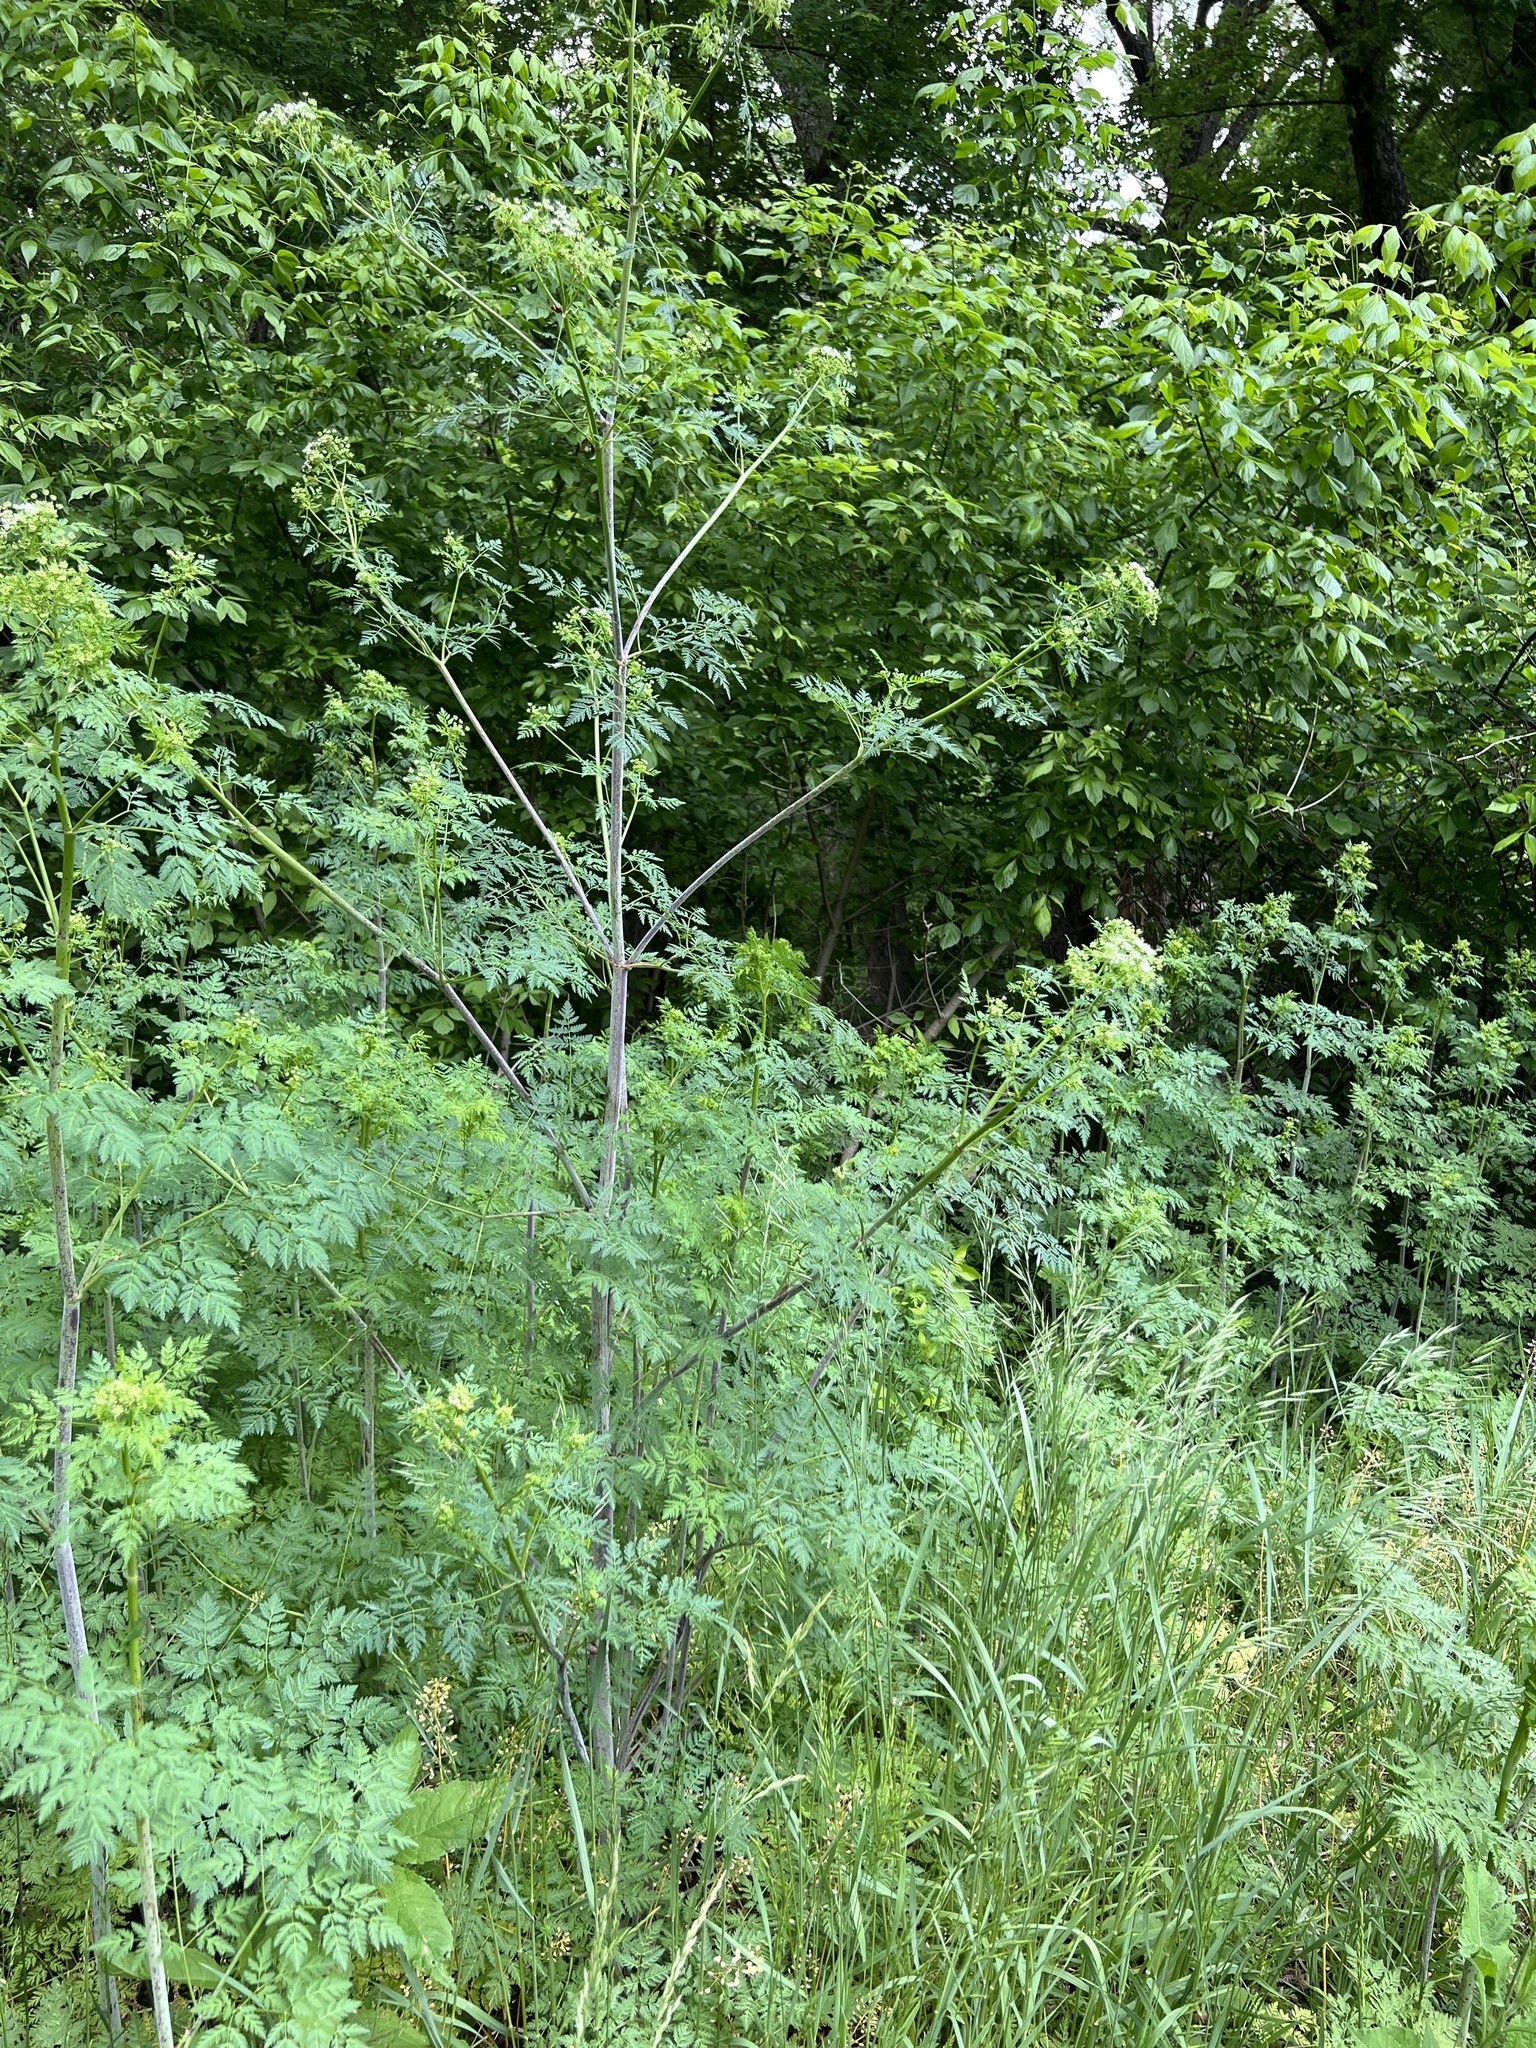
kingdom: Plantae
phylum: Tracheophyta
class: Magnoliopsida
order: Apiales
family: Apiaceae
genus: Conium
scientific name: Conium maculatum
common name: Hemlock
